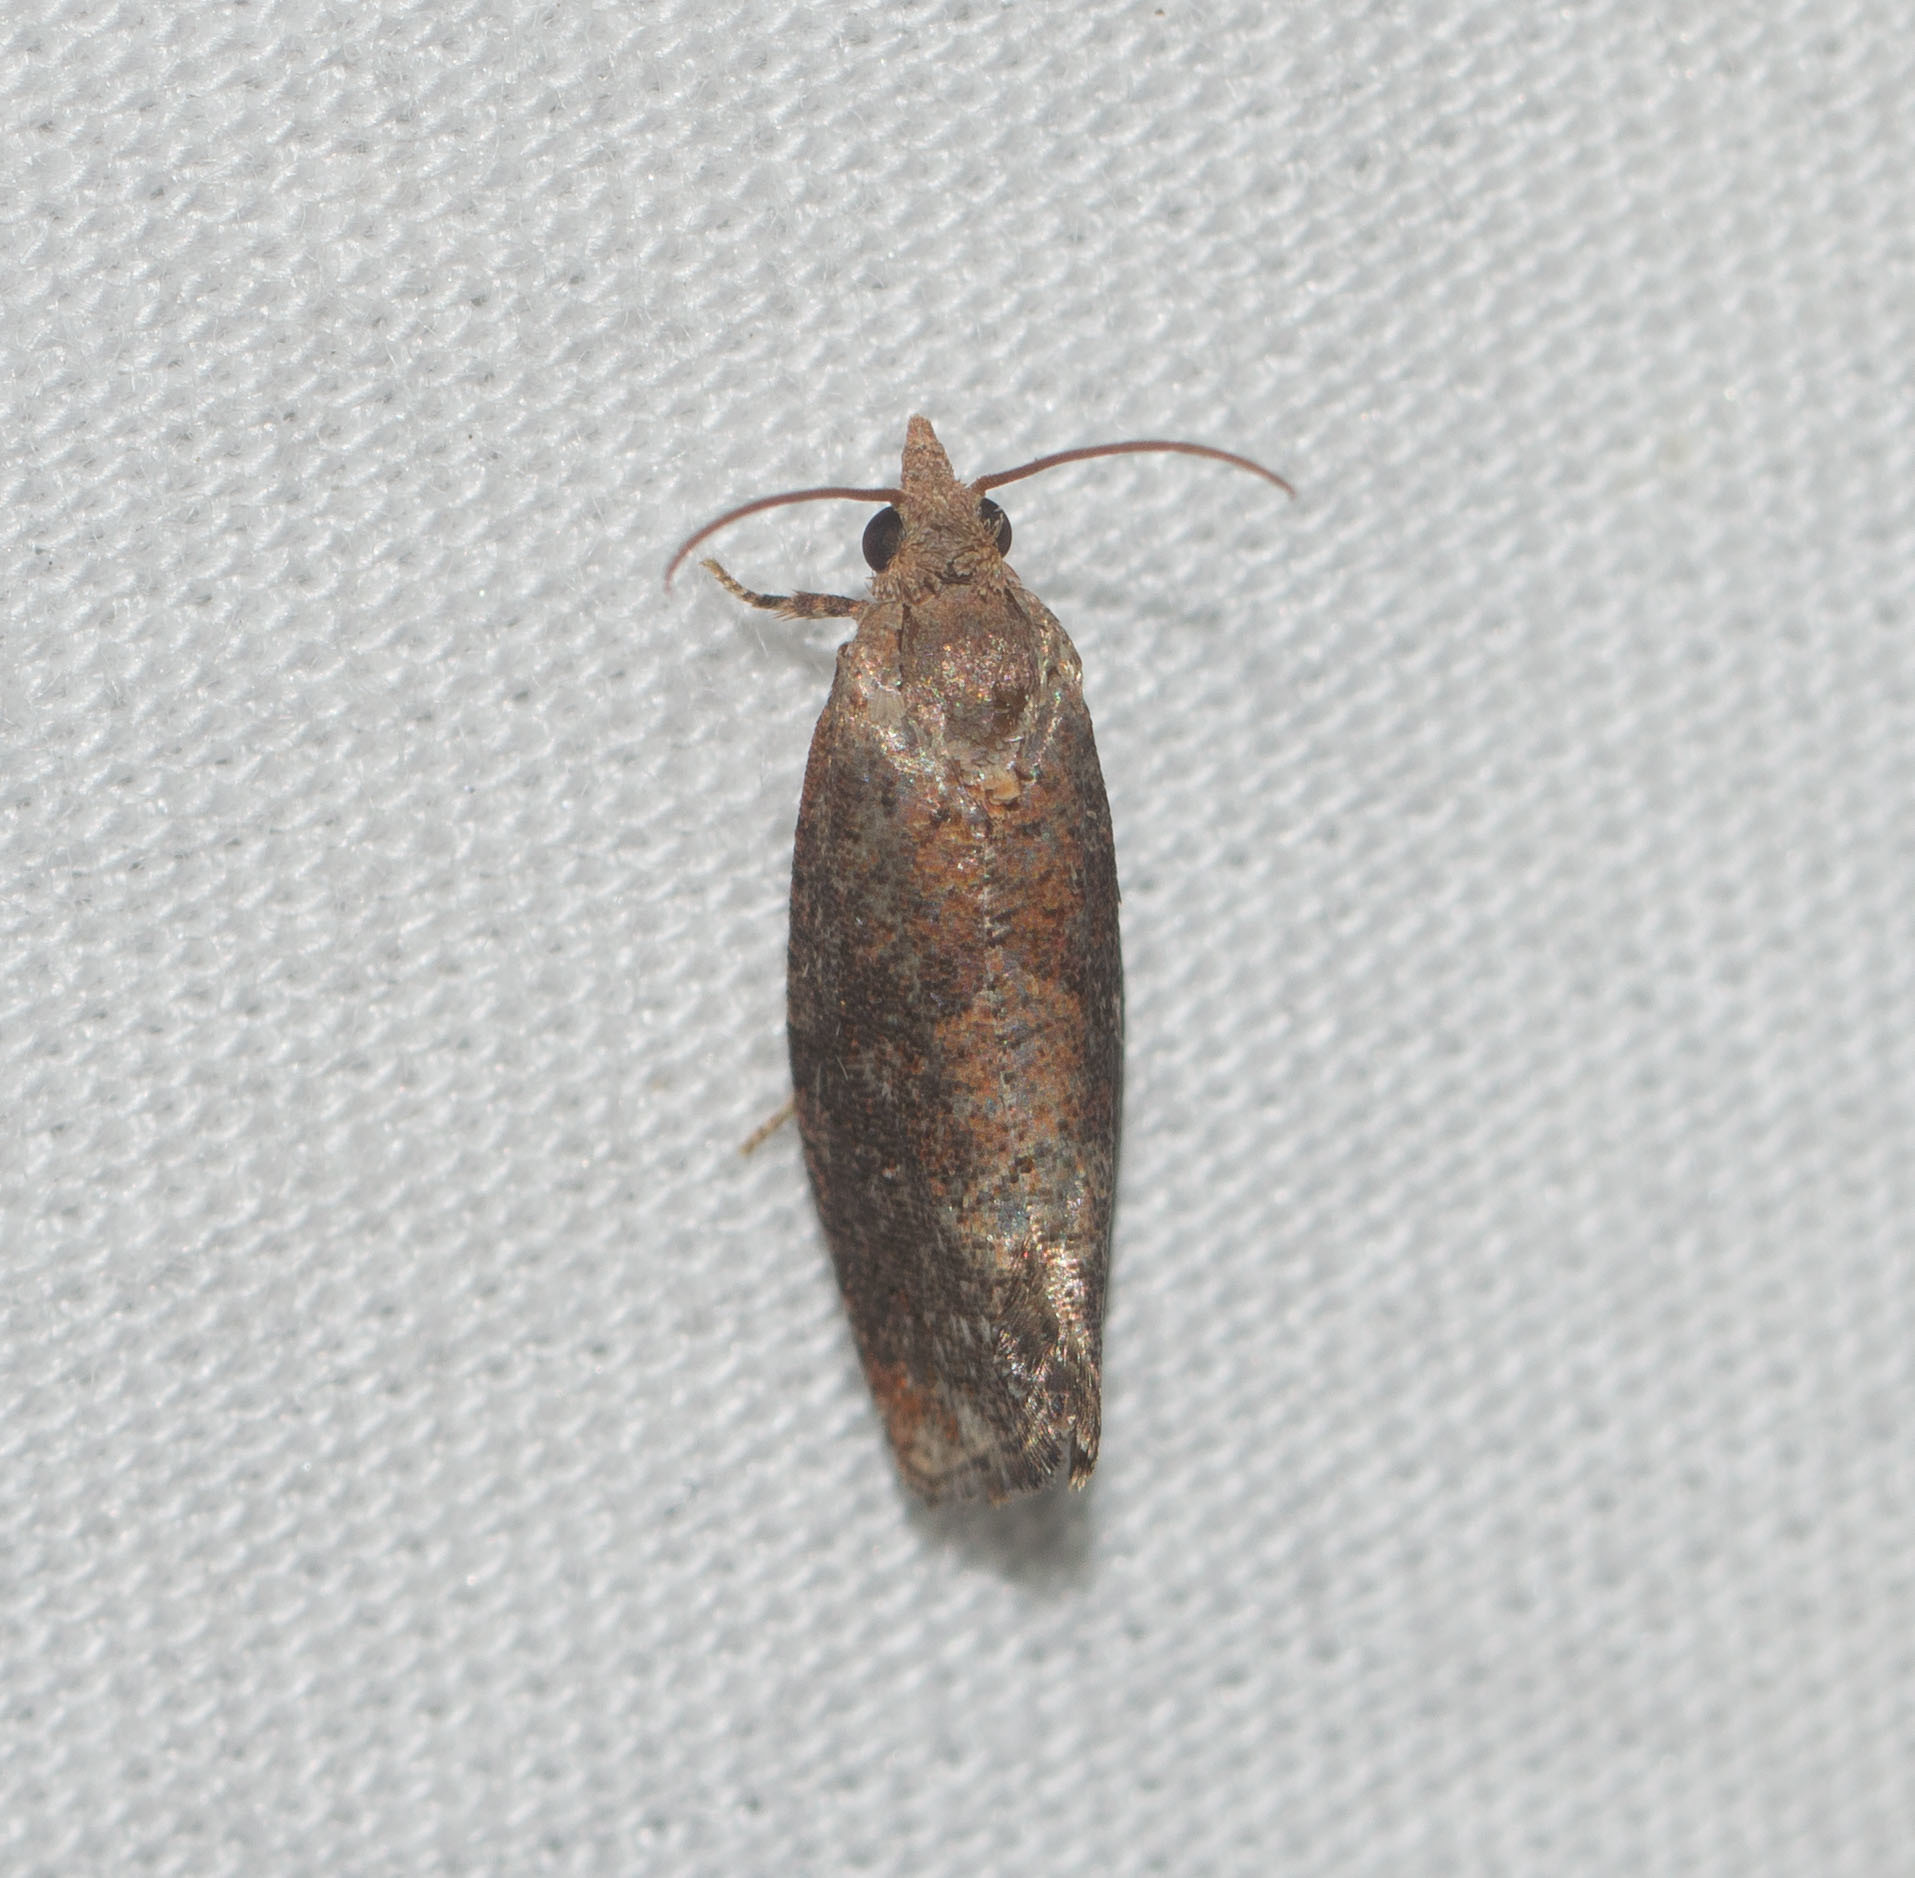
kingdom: Animalia
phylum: Arthropoda
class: Insecta
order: Lepidoptera
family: Tortricidae
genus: Cryptophlebia
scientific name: Cryptophlebia illepida
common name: Moth
